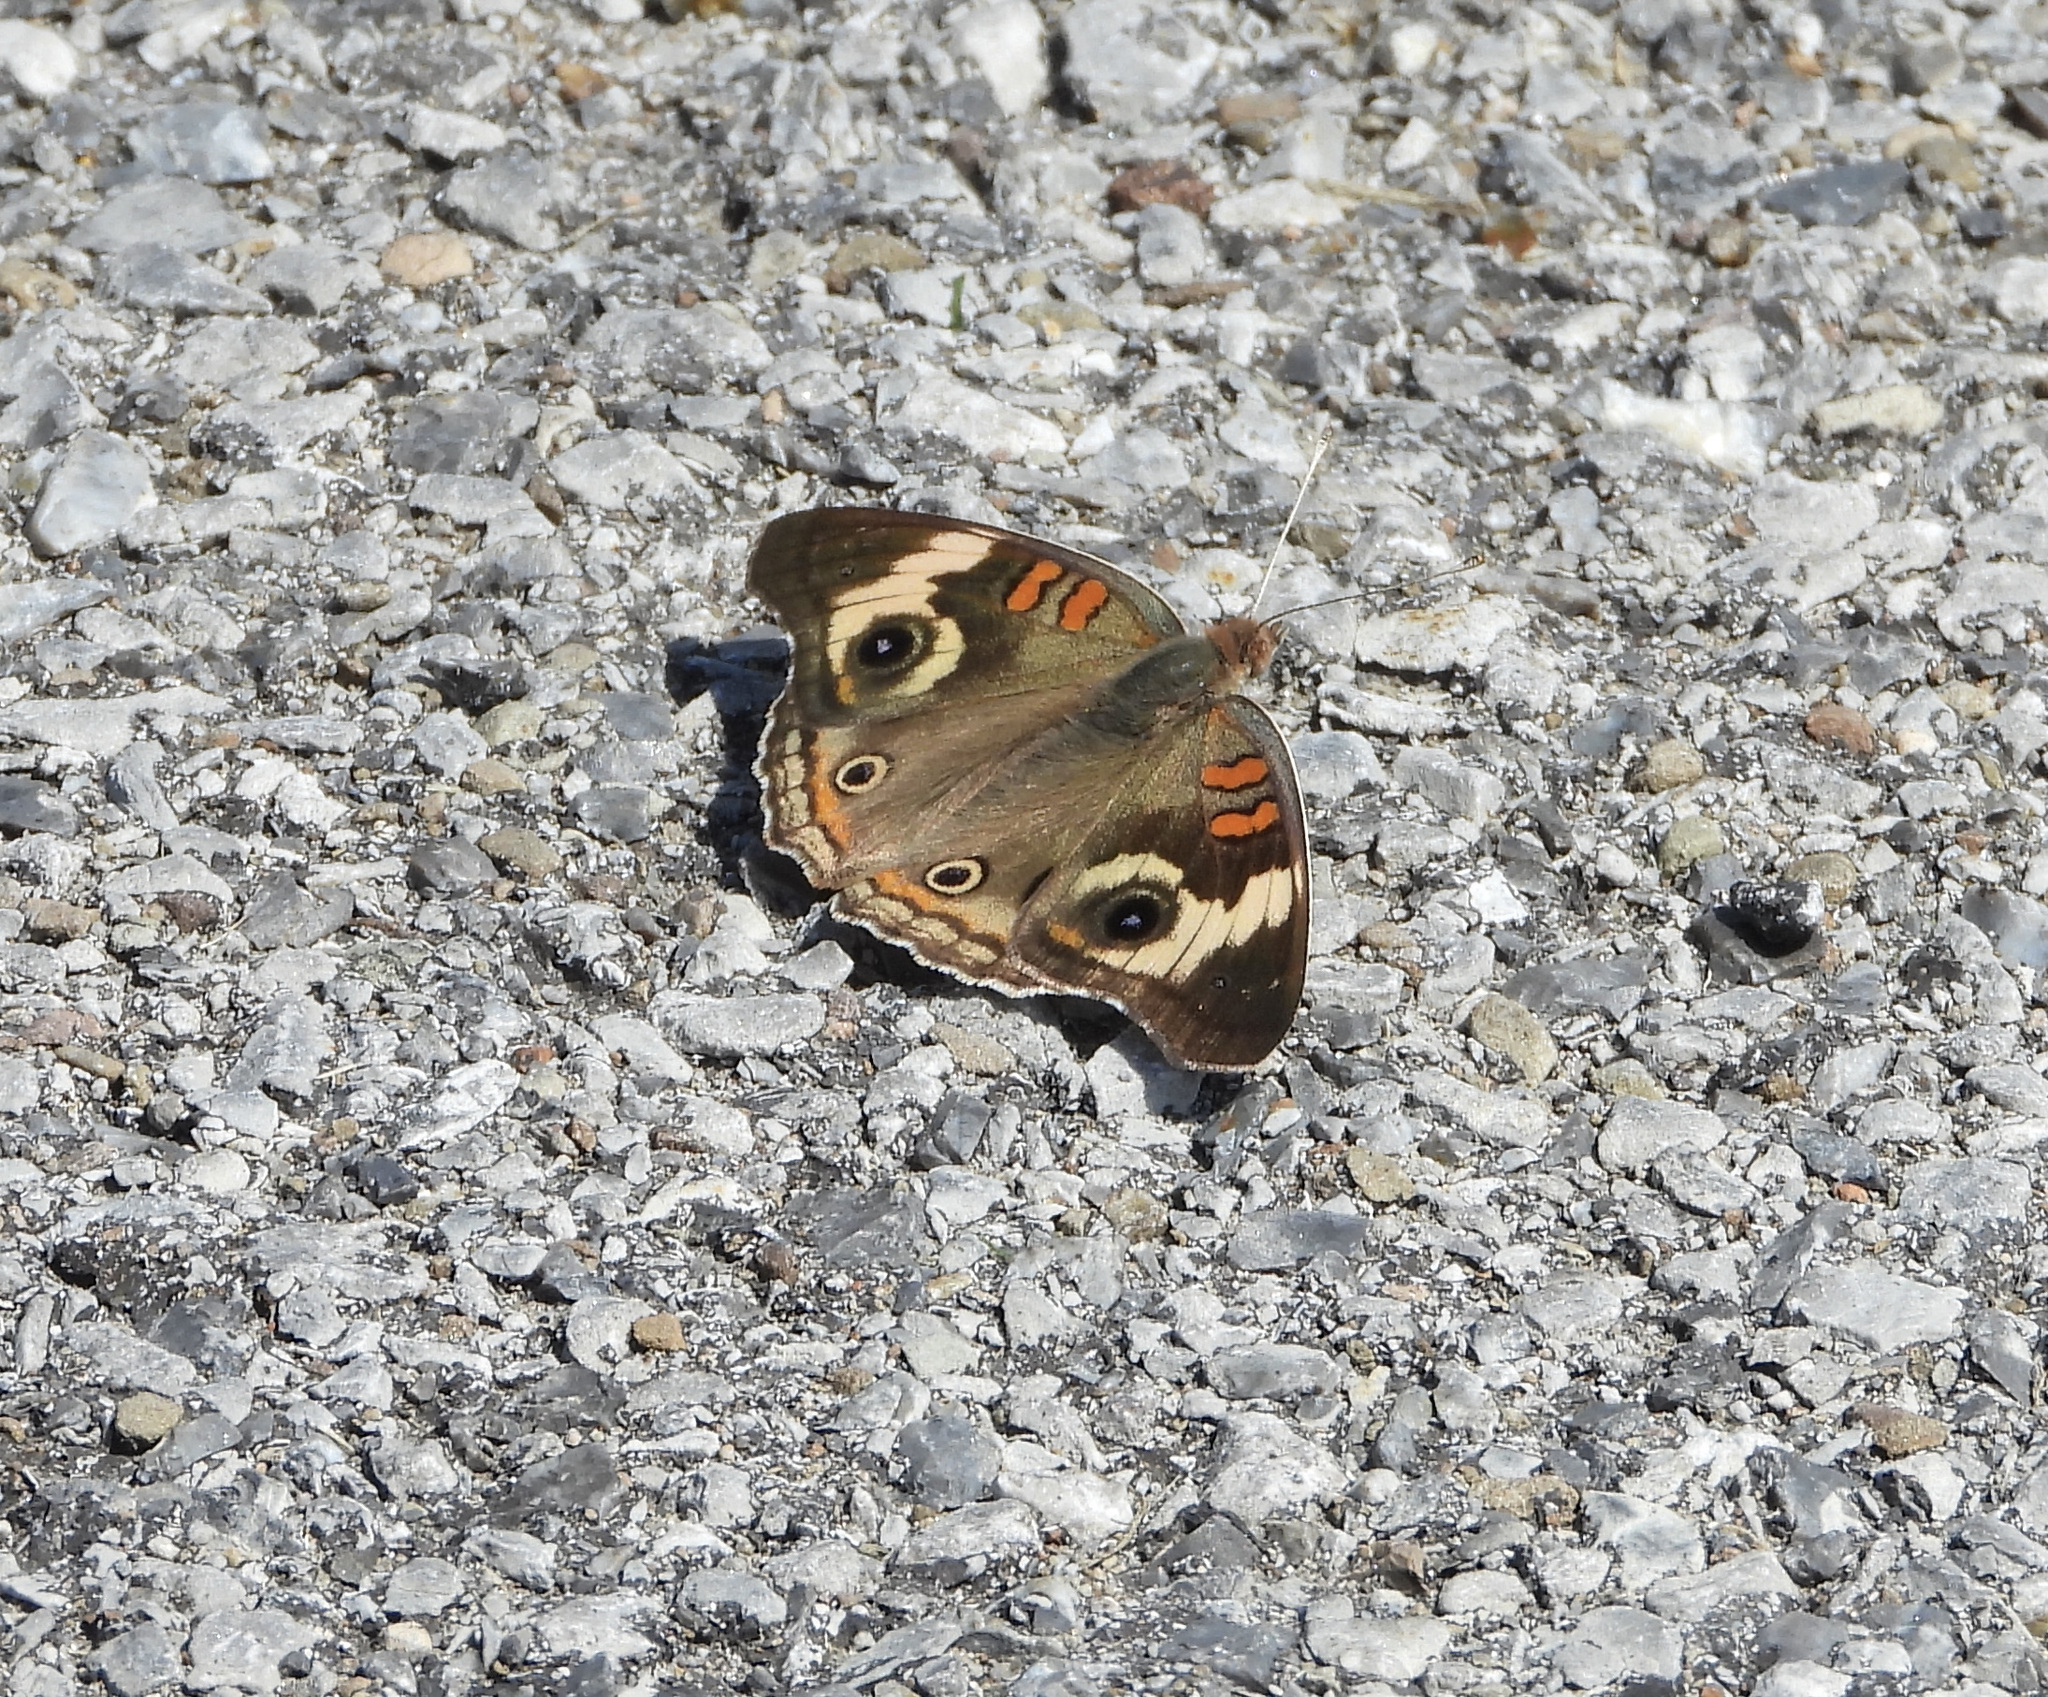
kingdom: Animalia
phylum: Arthropoda
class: Insecta
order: Lepidoptera
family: Nymphalidae
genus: Junonia
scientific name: Junonia coenia
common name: Common buckeye
